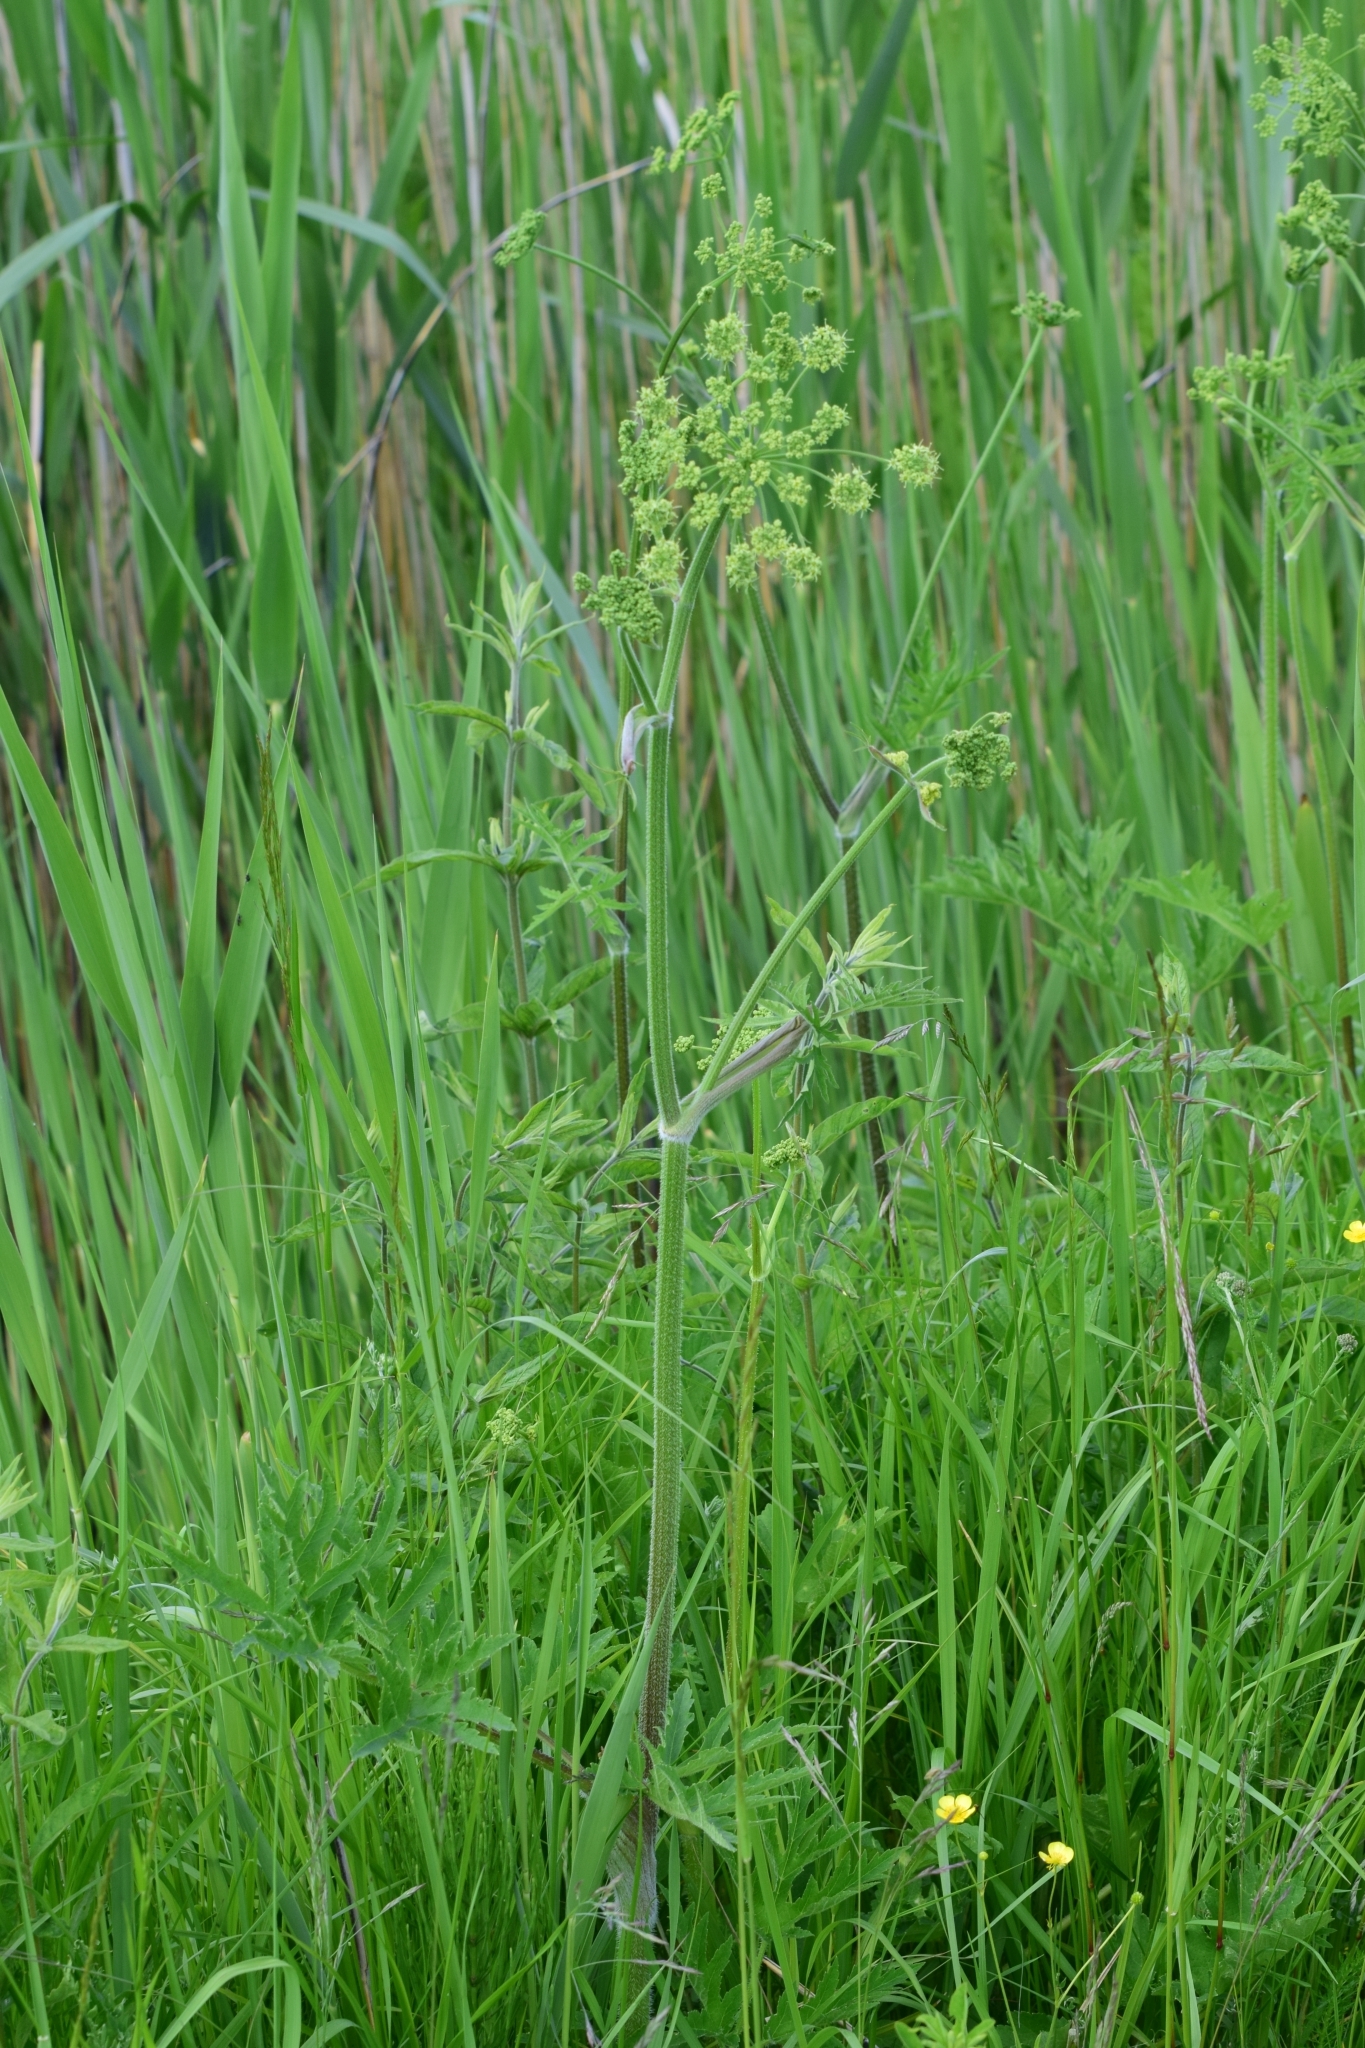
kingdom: Plantae
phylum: Tracheophyta
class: Magnoliopsida
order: Apiales
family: Apiaceae
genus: Heracleum
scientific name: Heracleum sphondylium
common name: Hogweed
